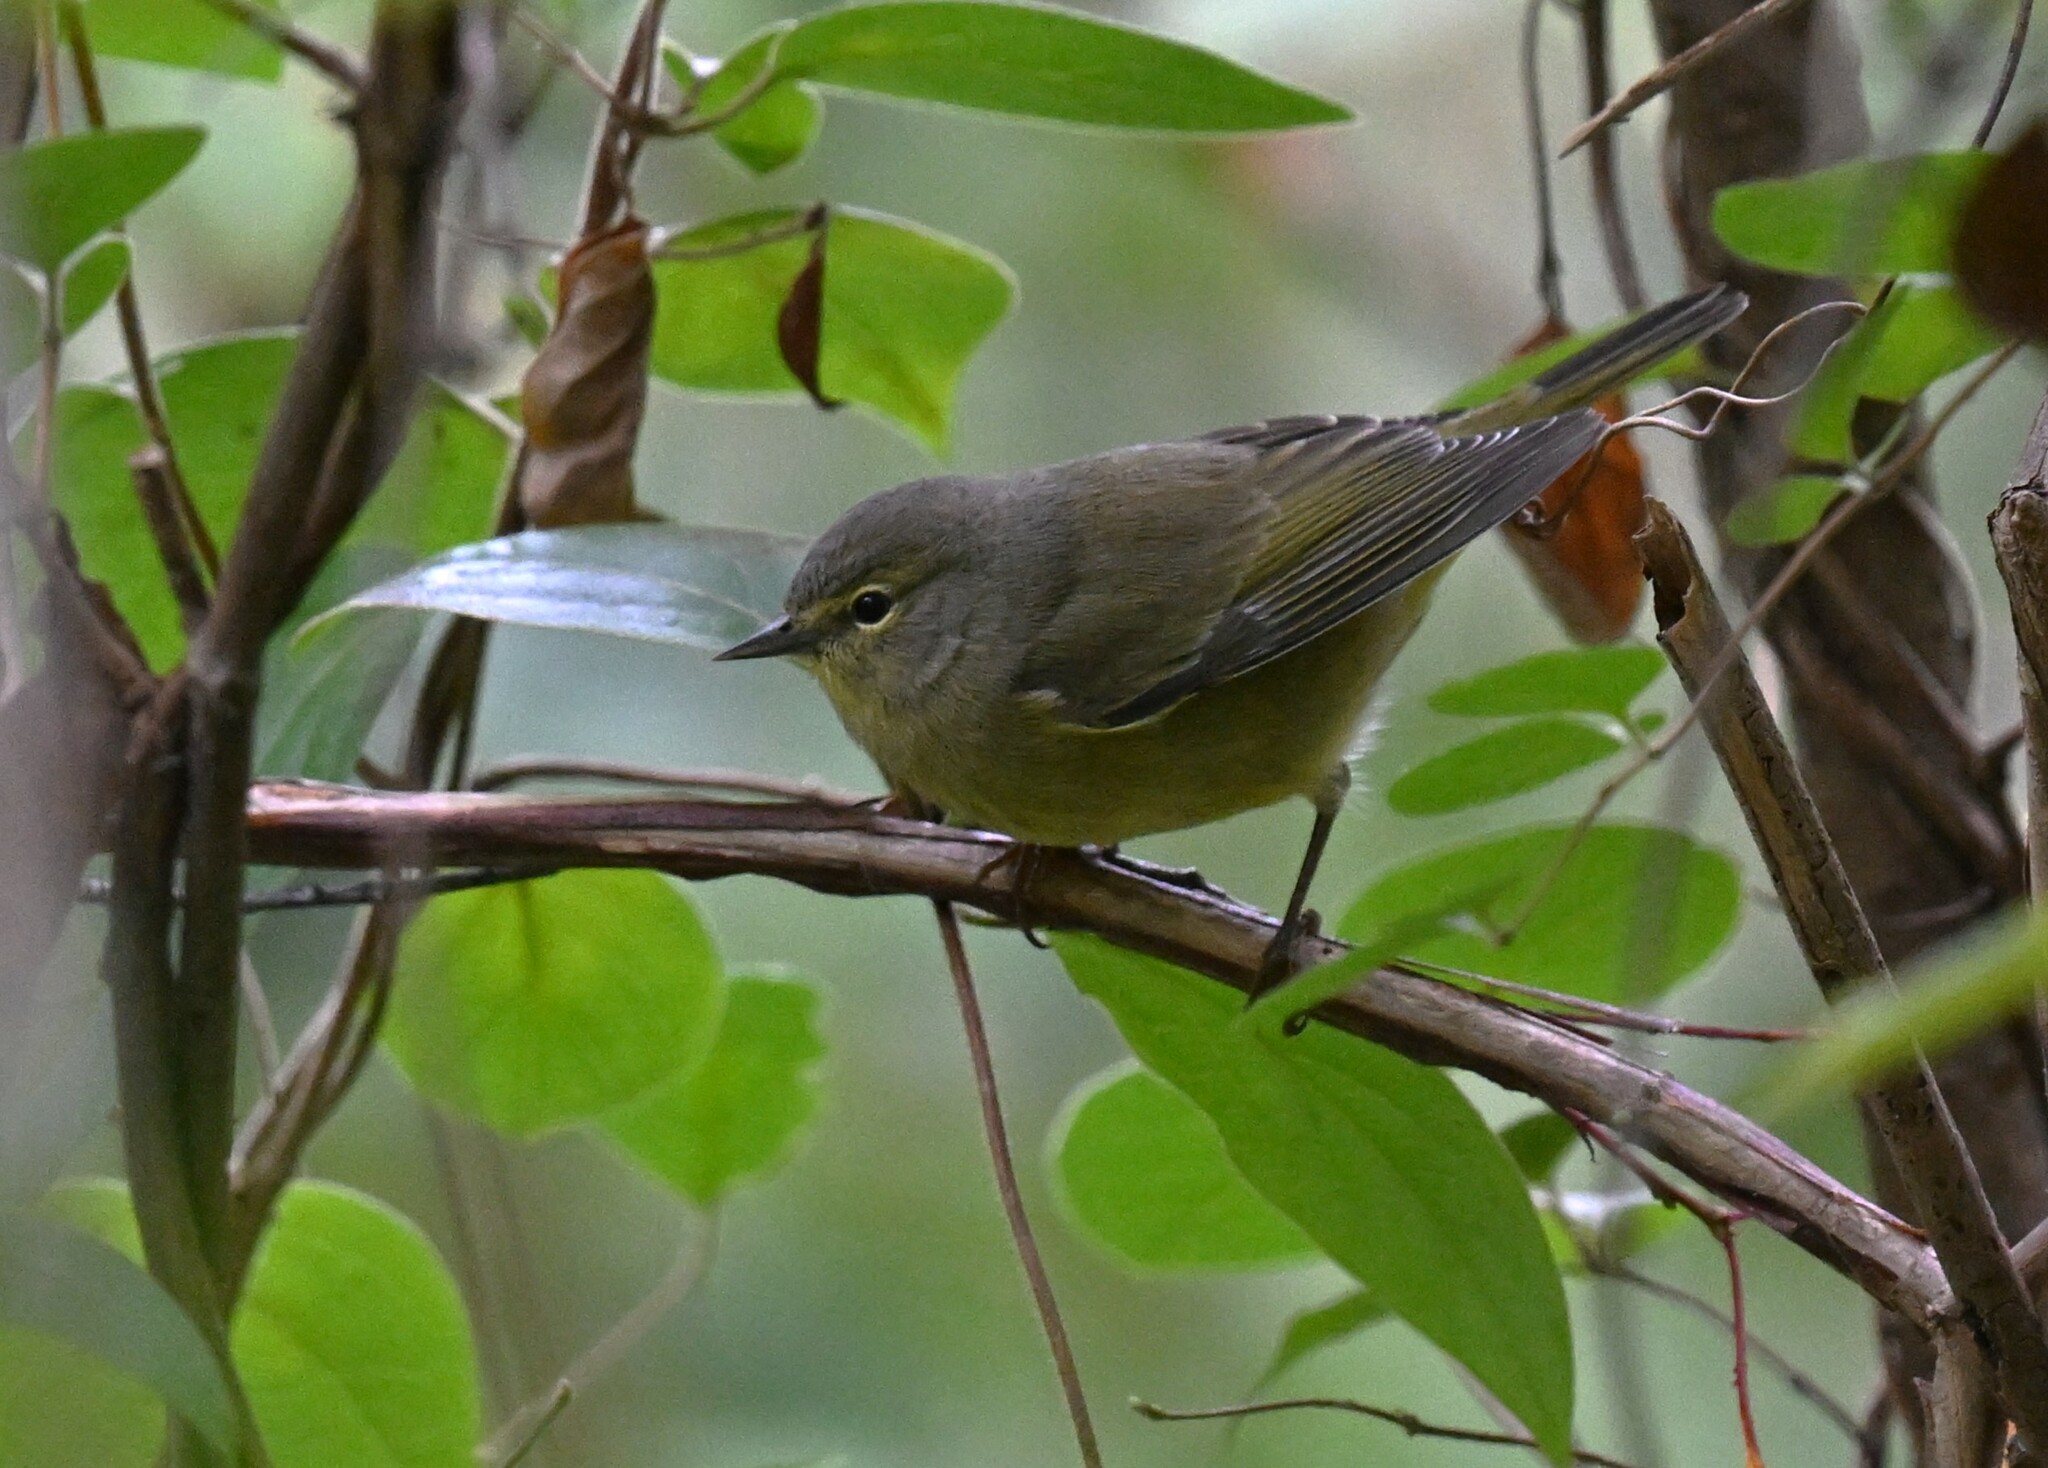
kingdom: Animalia
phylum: Chordata
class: Aves
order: Passeriformes
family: Parulidae
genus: Leiothlypis
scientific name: Leiothlypis celata
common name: Orange-crowned warbler
